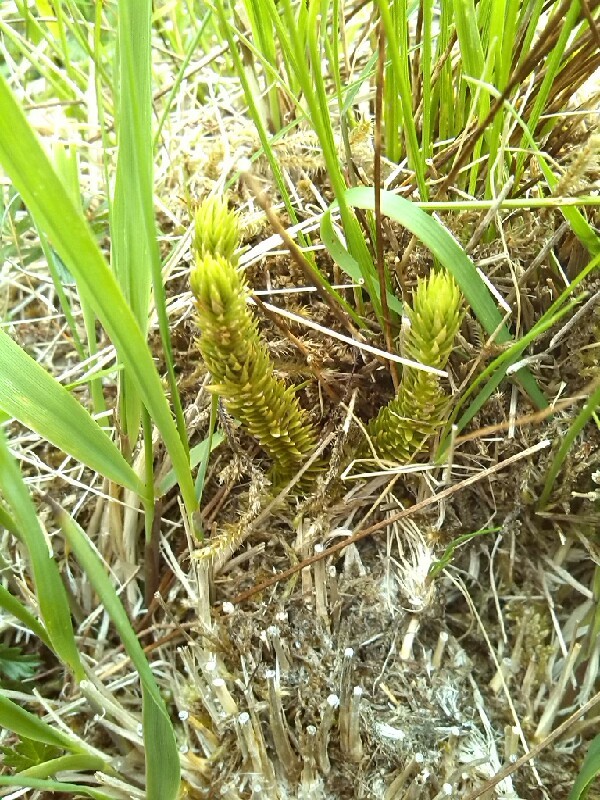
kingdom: Plantae
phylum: Tracheophyta
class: Lycopodiopsida
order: Lycopodiales
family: Lycopodiaceae
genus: Huperzia
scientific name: Huperzia selago
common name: Northern firmoss
